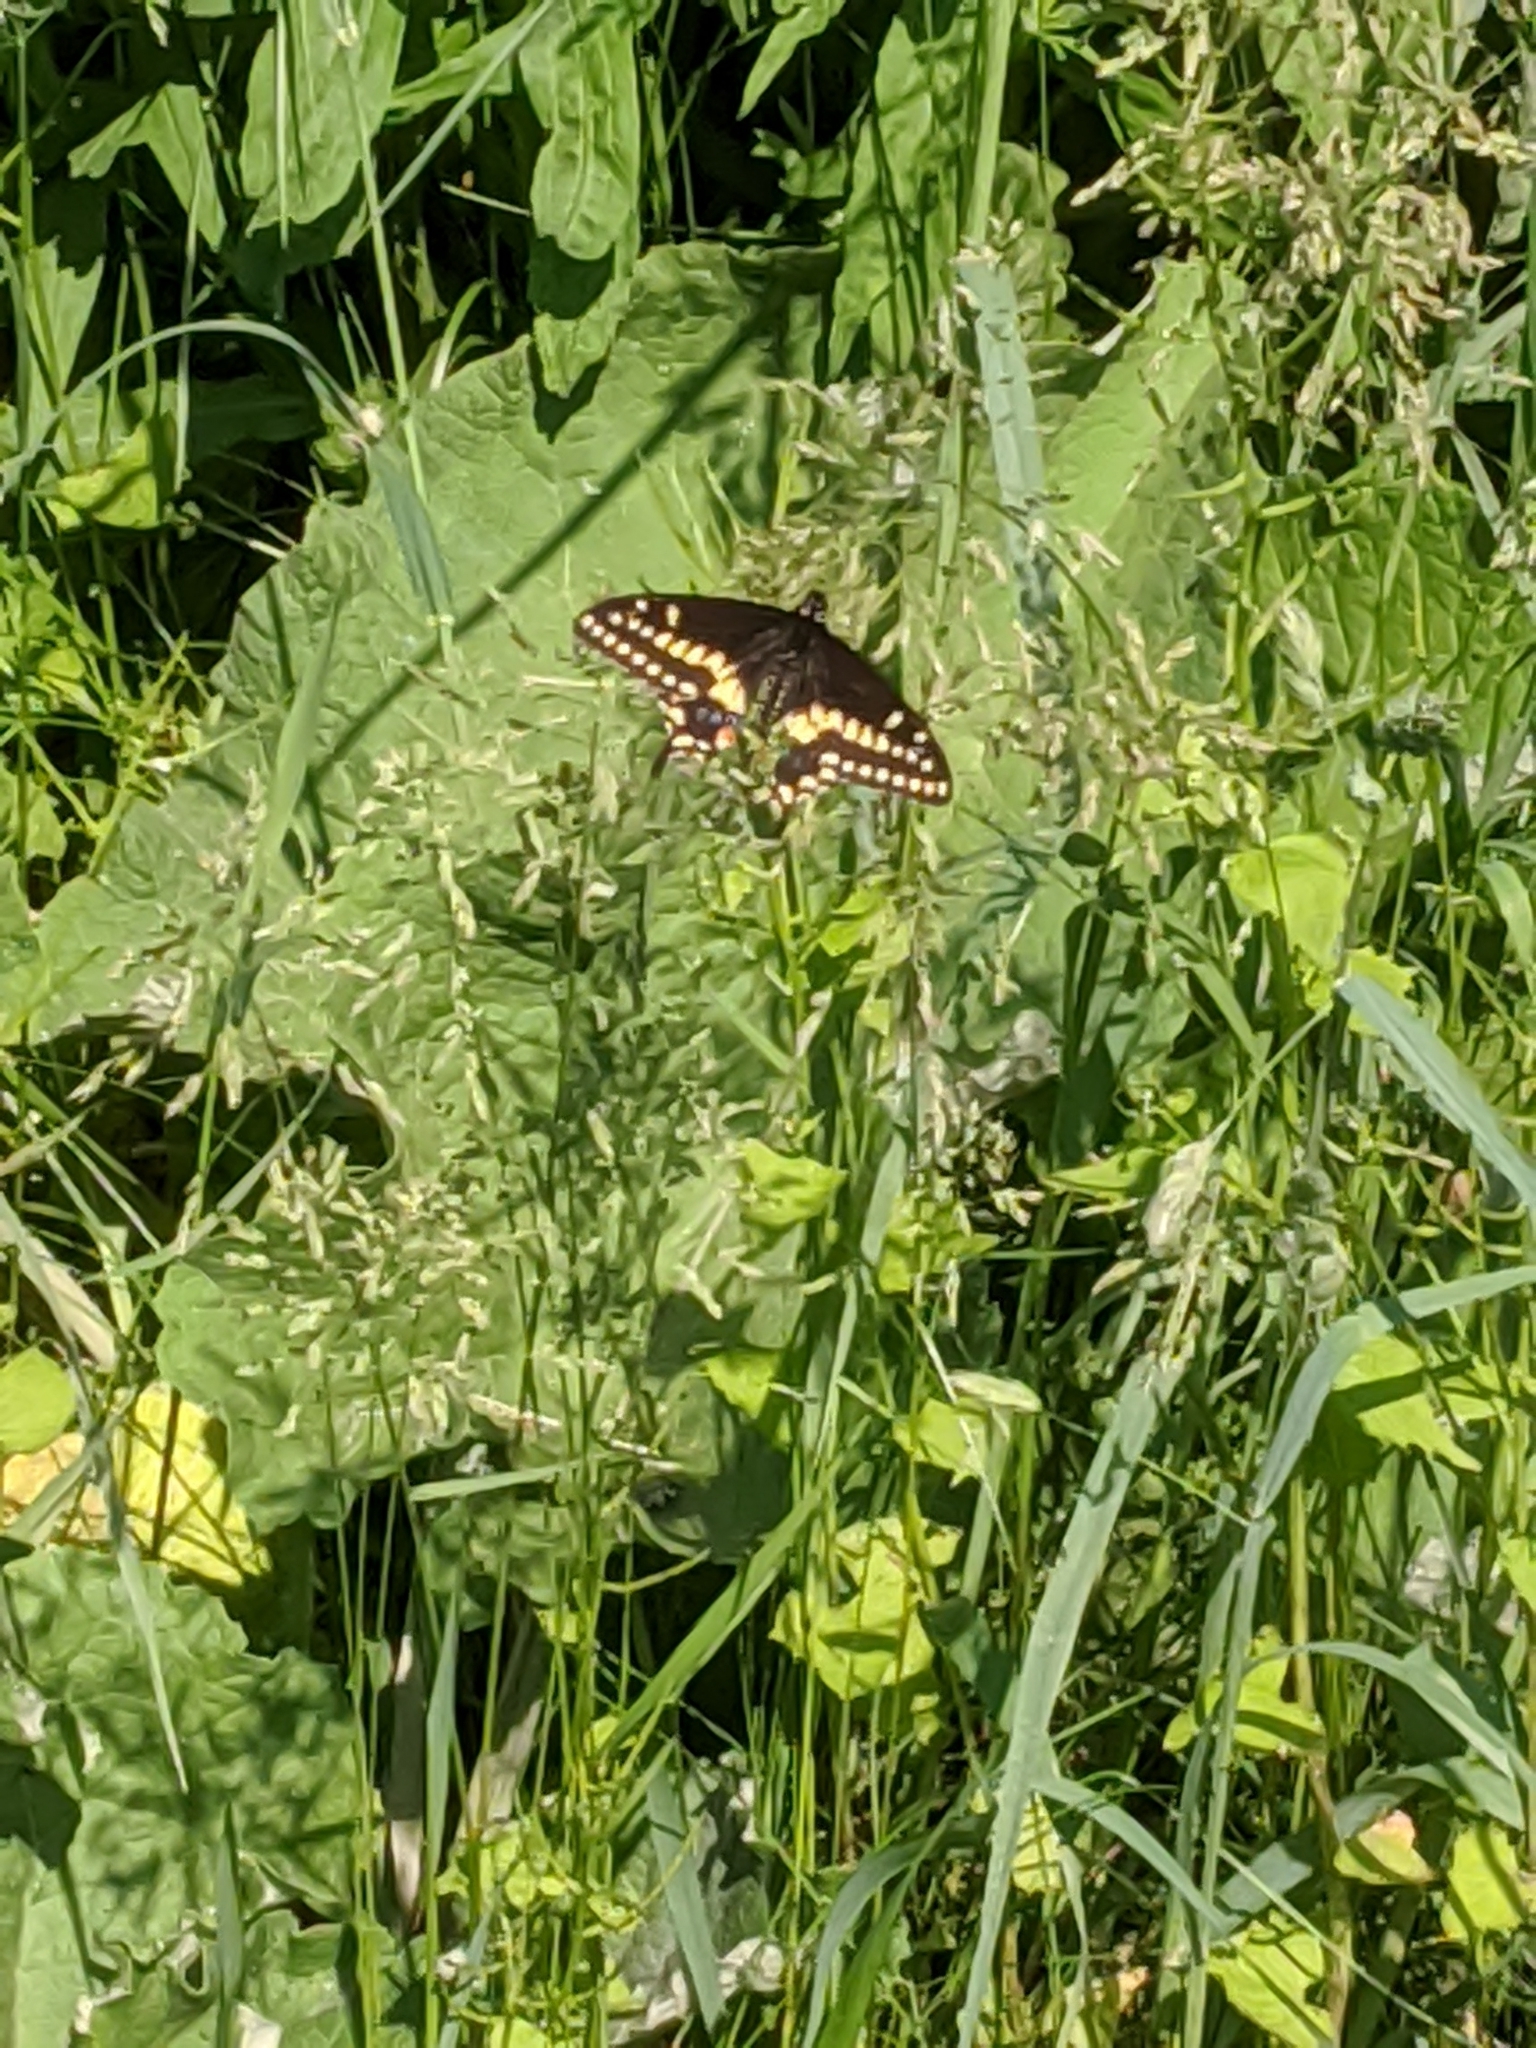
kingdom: Animalia
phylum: Arthropoda
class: Insecta
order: Lepidoptera
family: Papilionidae
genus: Papilio
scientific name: Papilio polyxenes
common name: Black swallowtail
